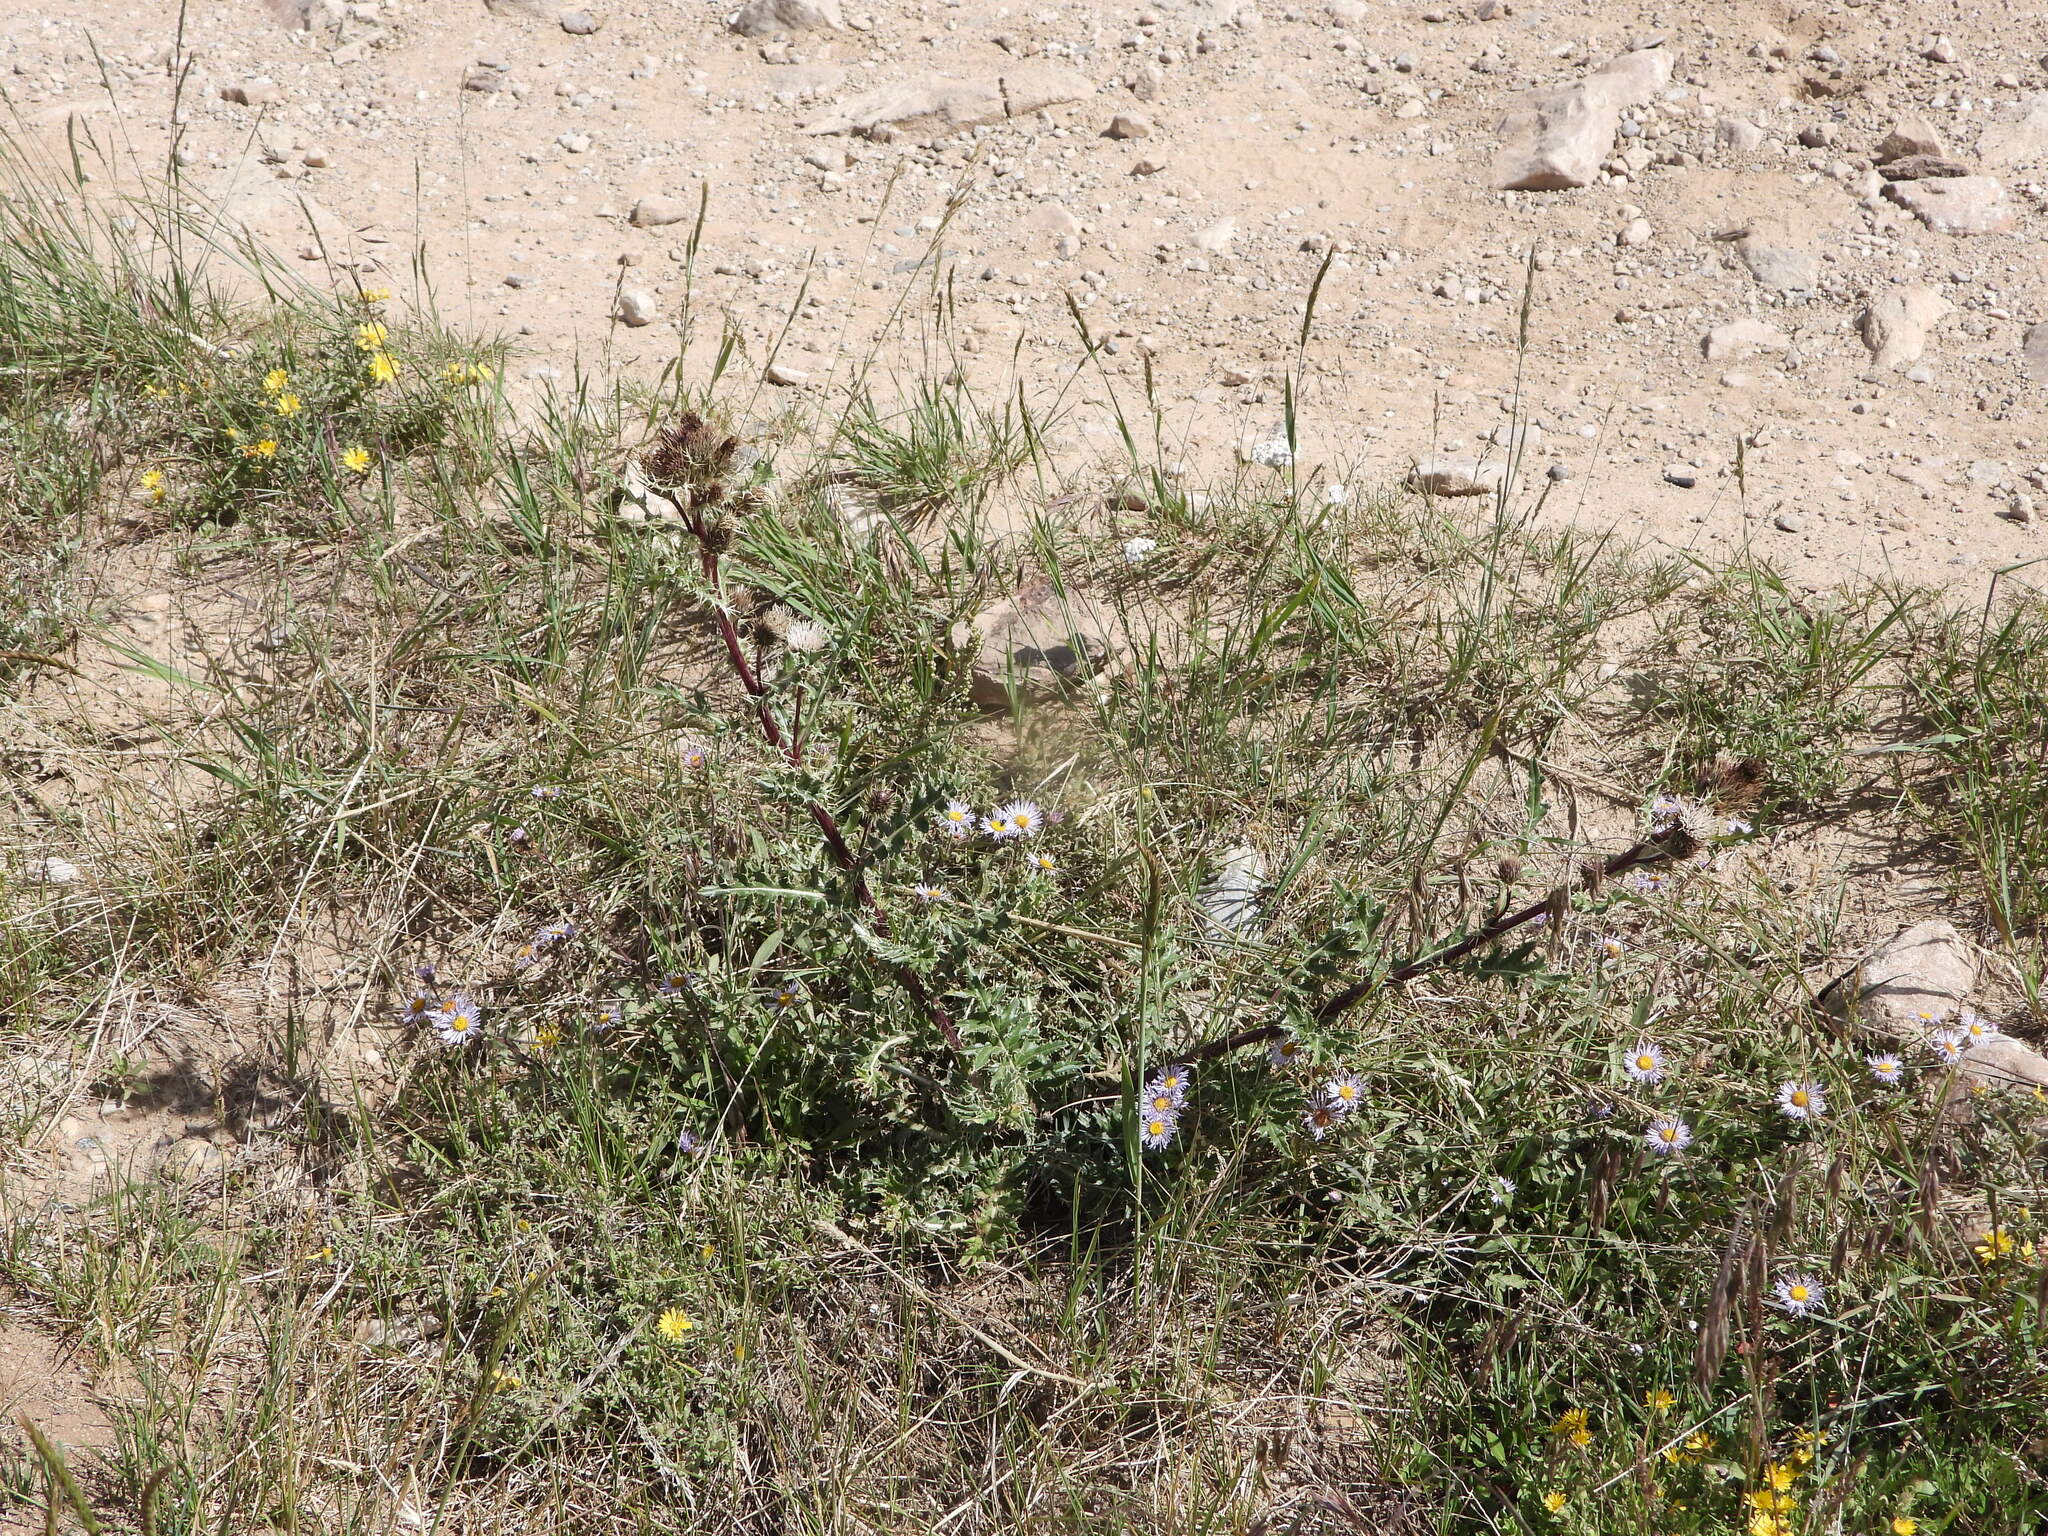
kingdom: Plantae
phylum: Tracheophyta
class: Magnoliopsida
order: Asterales
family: Asteraceae
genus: Cirsium
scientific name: Cirsium griseum
